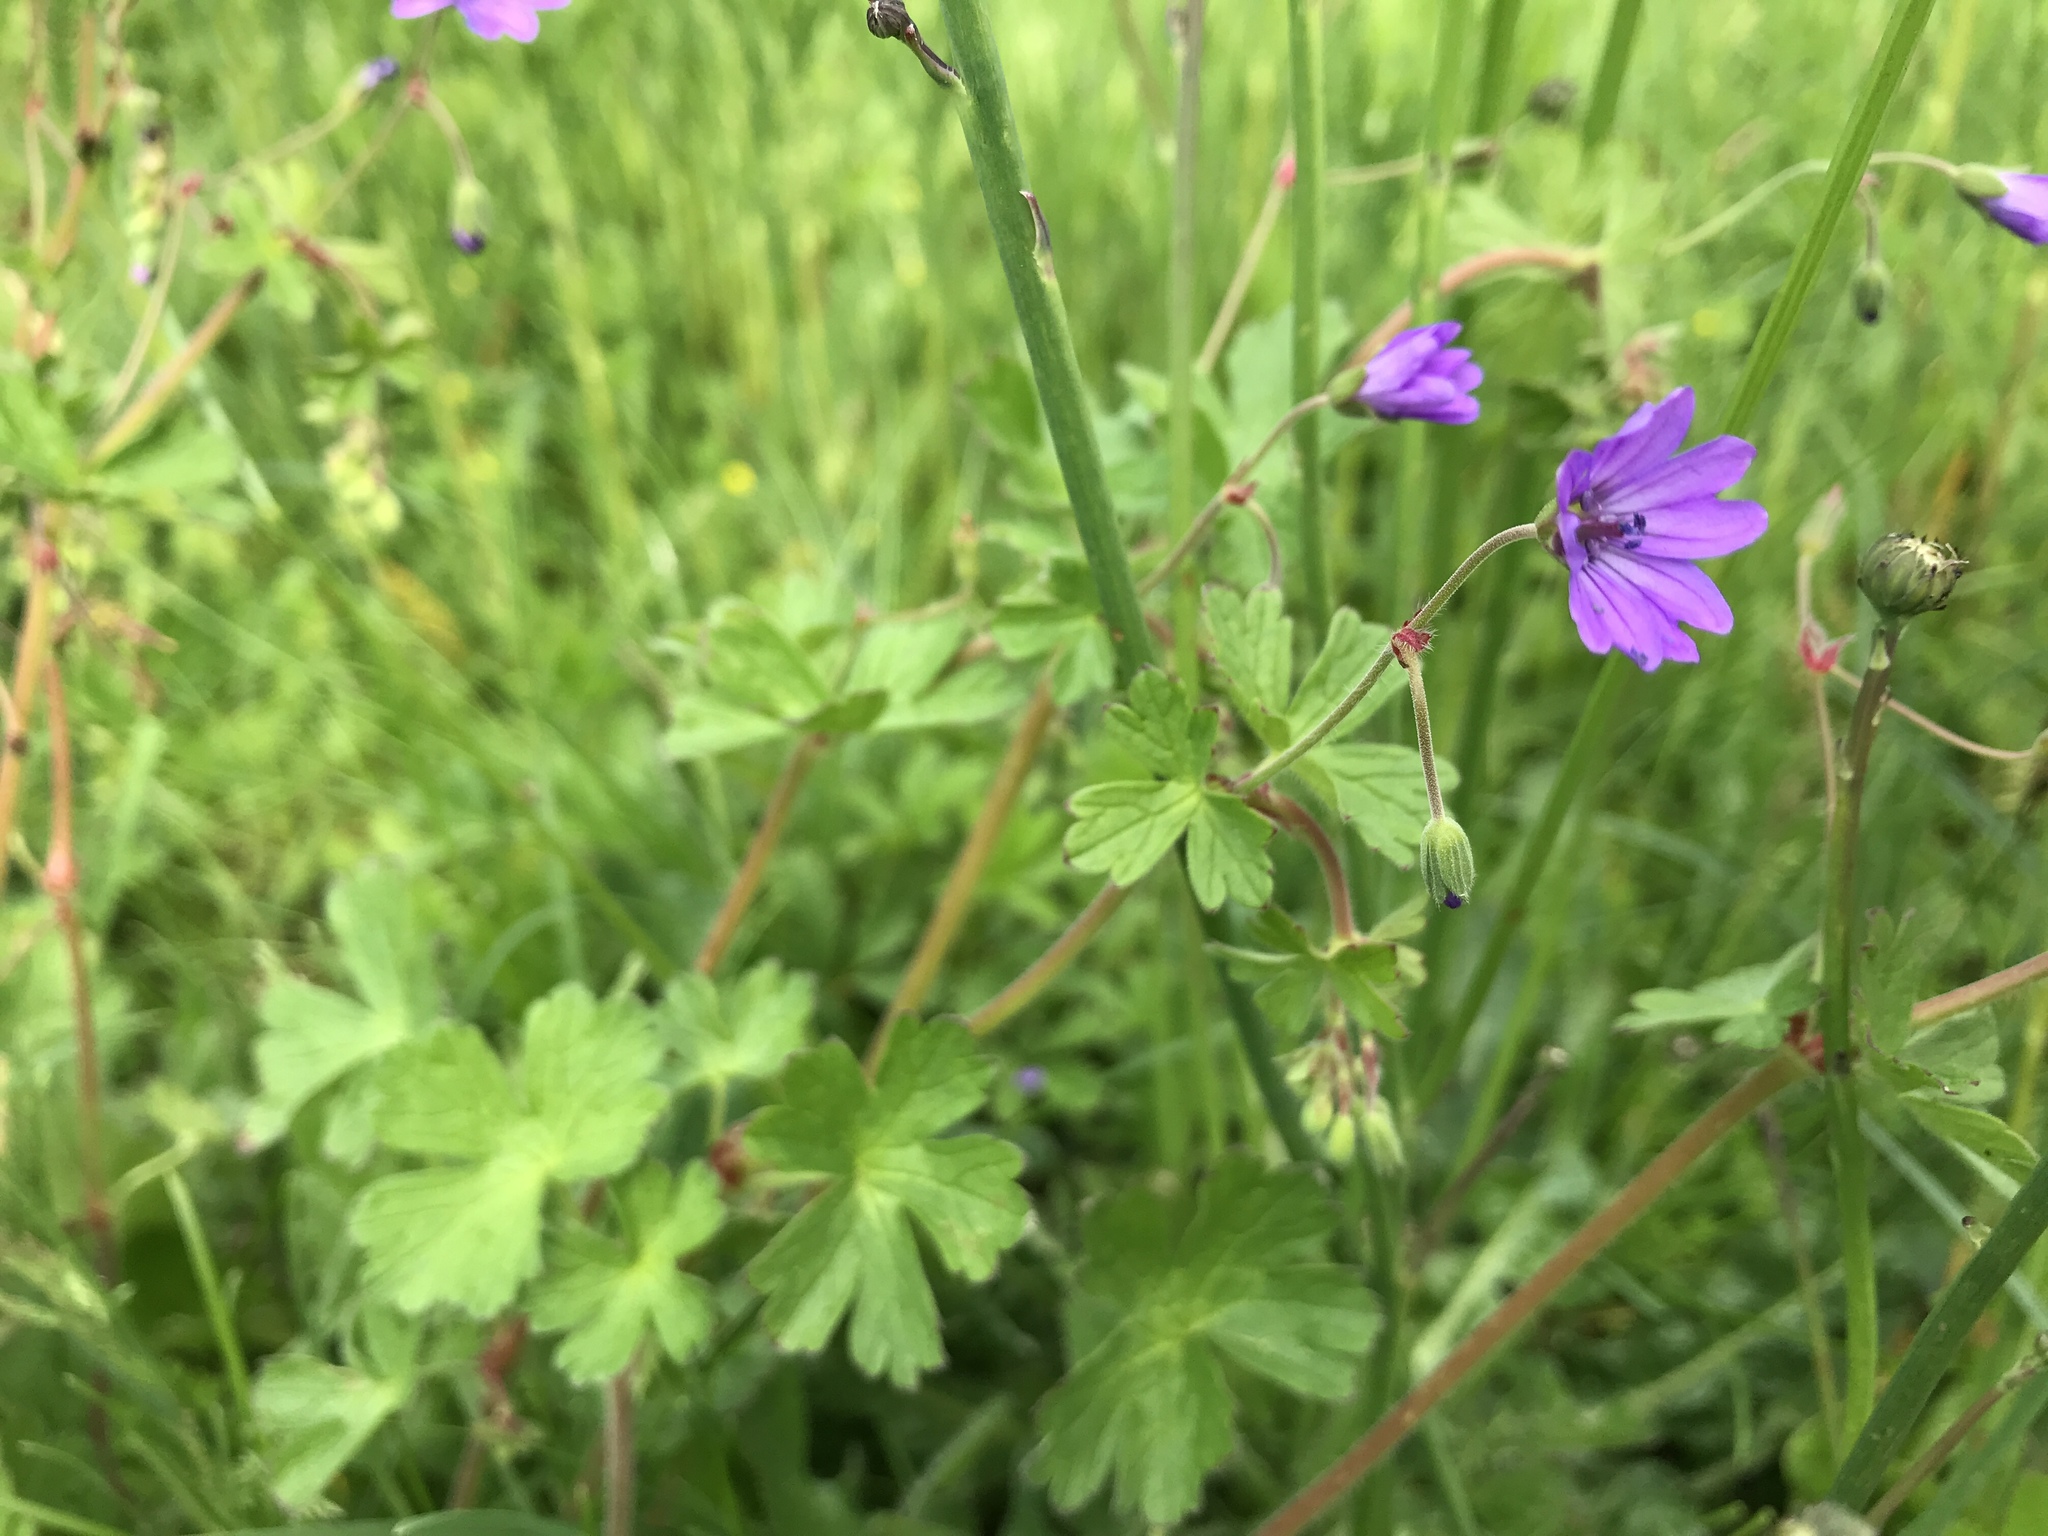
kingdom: Plantae
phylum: Tracheophyta
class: Magnoliopsida
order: Geraniales
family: Geraniaceae
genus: Geranium
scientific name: Geranium pyrenaicum
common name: Hedgerow crane's-bill
